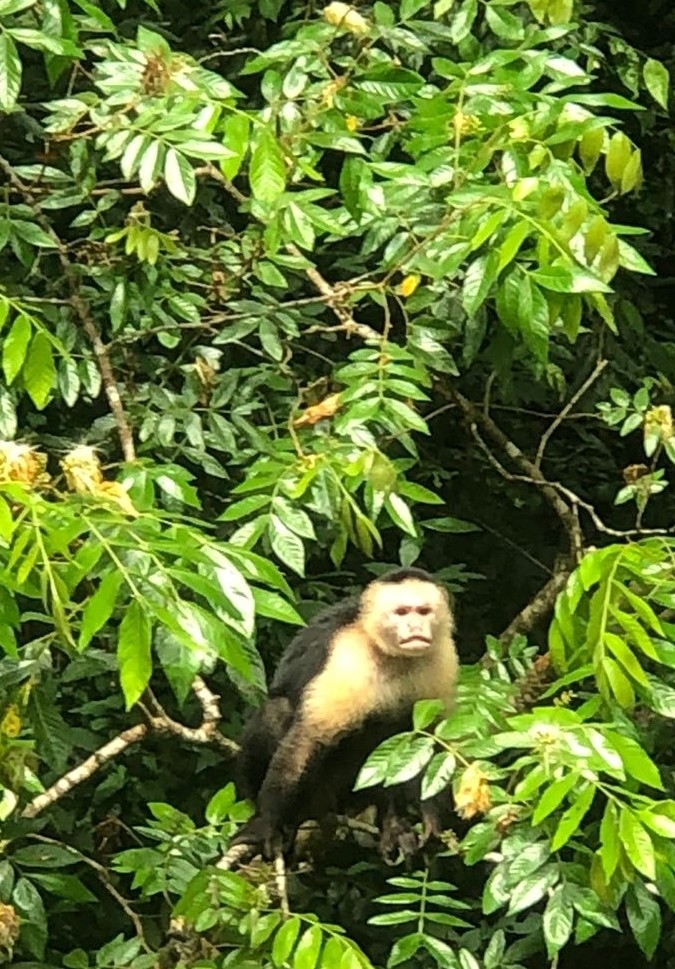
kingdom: Animalia
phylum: Chordata
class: Mammalia
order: Primates
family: Cebidae
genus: Cebus
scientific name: Cebus imitator
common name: Panamanian white-faced capuchin
